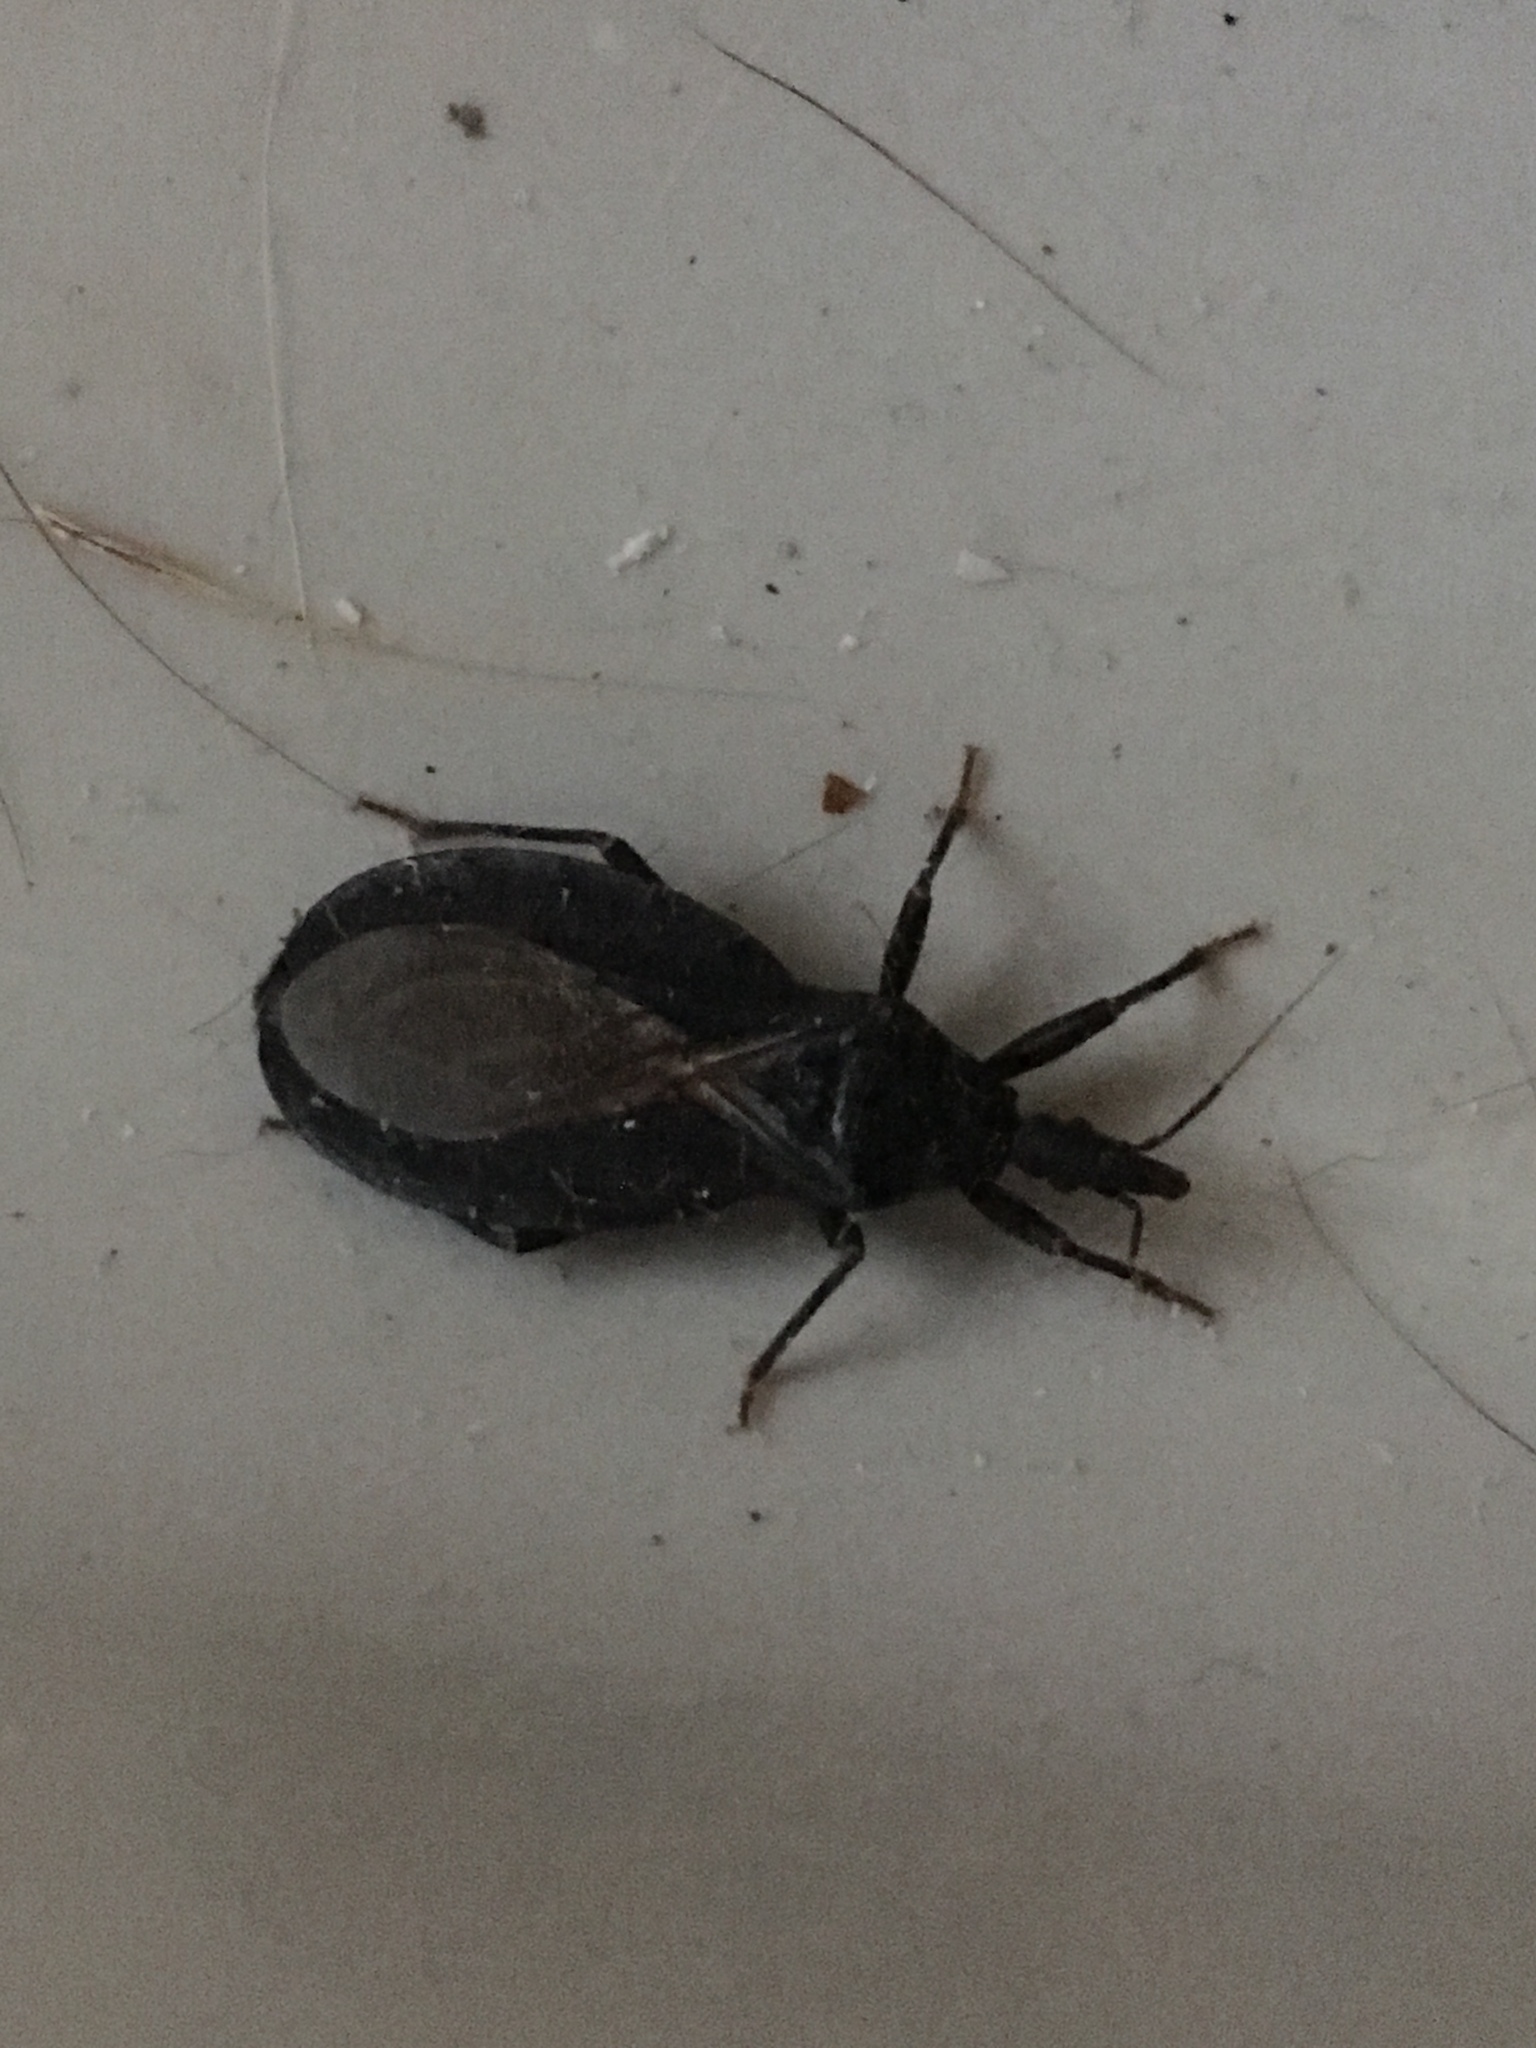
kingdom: Animalia
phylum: Arthropoda
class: Insecta
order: Hemiptera
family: Reduviidae
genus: Triatoma
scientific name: Triatoma protracta
